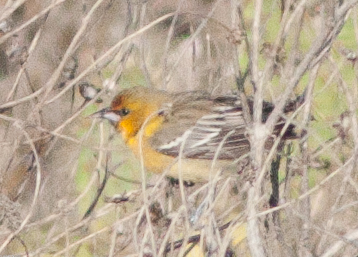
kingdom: Animalia
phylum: Chordata
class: Aves
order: Passeriformes
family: Icteridae
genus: Icterus
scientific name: Icterus bullockii
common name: Bullock's oriole
